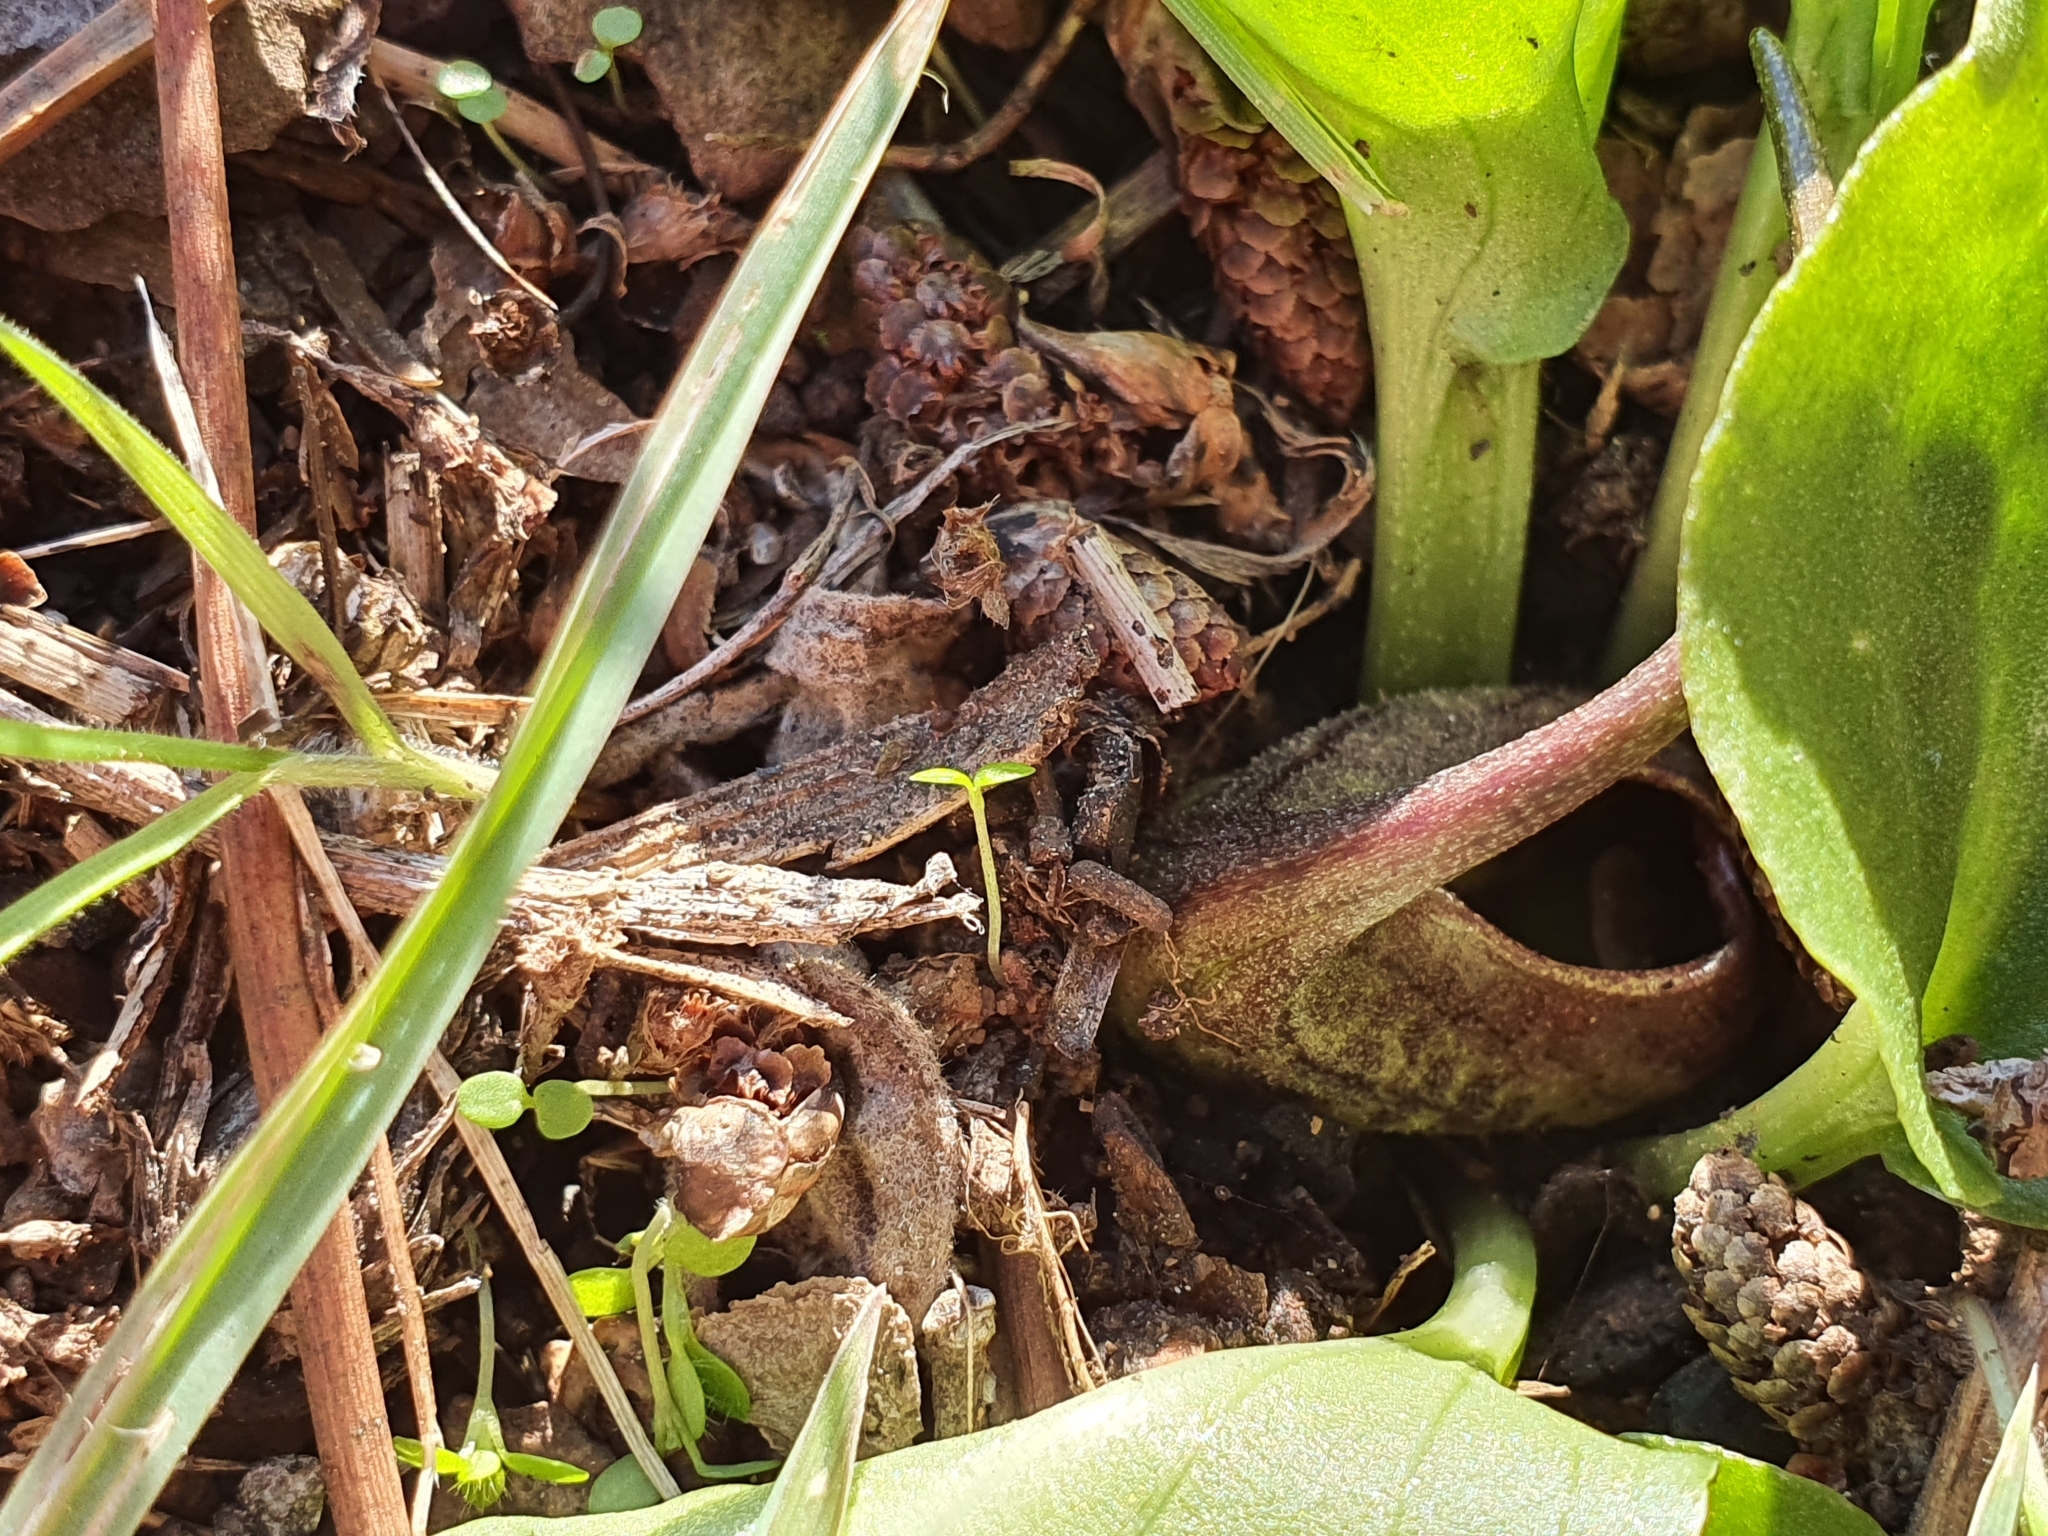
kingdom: Plantae
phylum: Tracheophyta
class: Liliopsida
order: Alismatales
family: Araceae
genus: Ambrosina
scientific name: Ambrosina bassii
